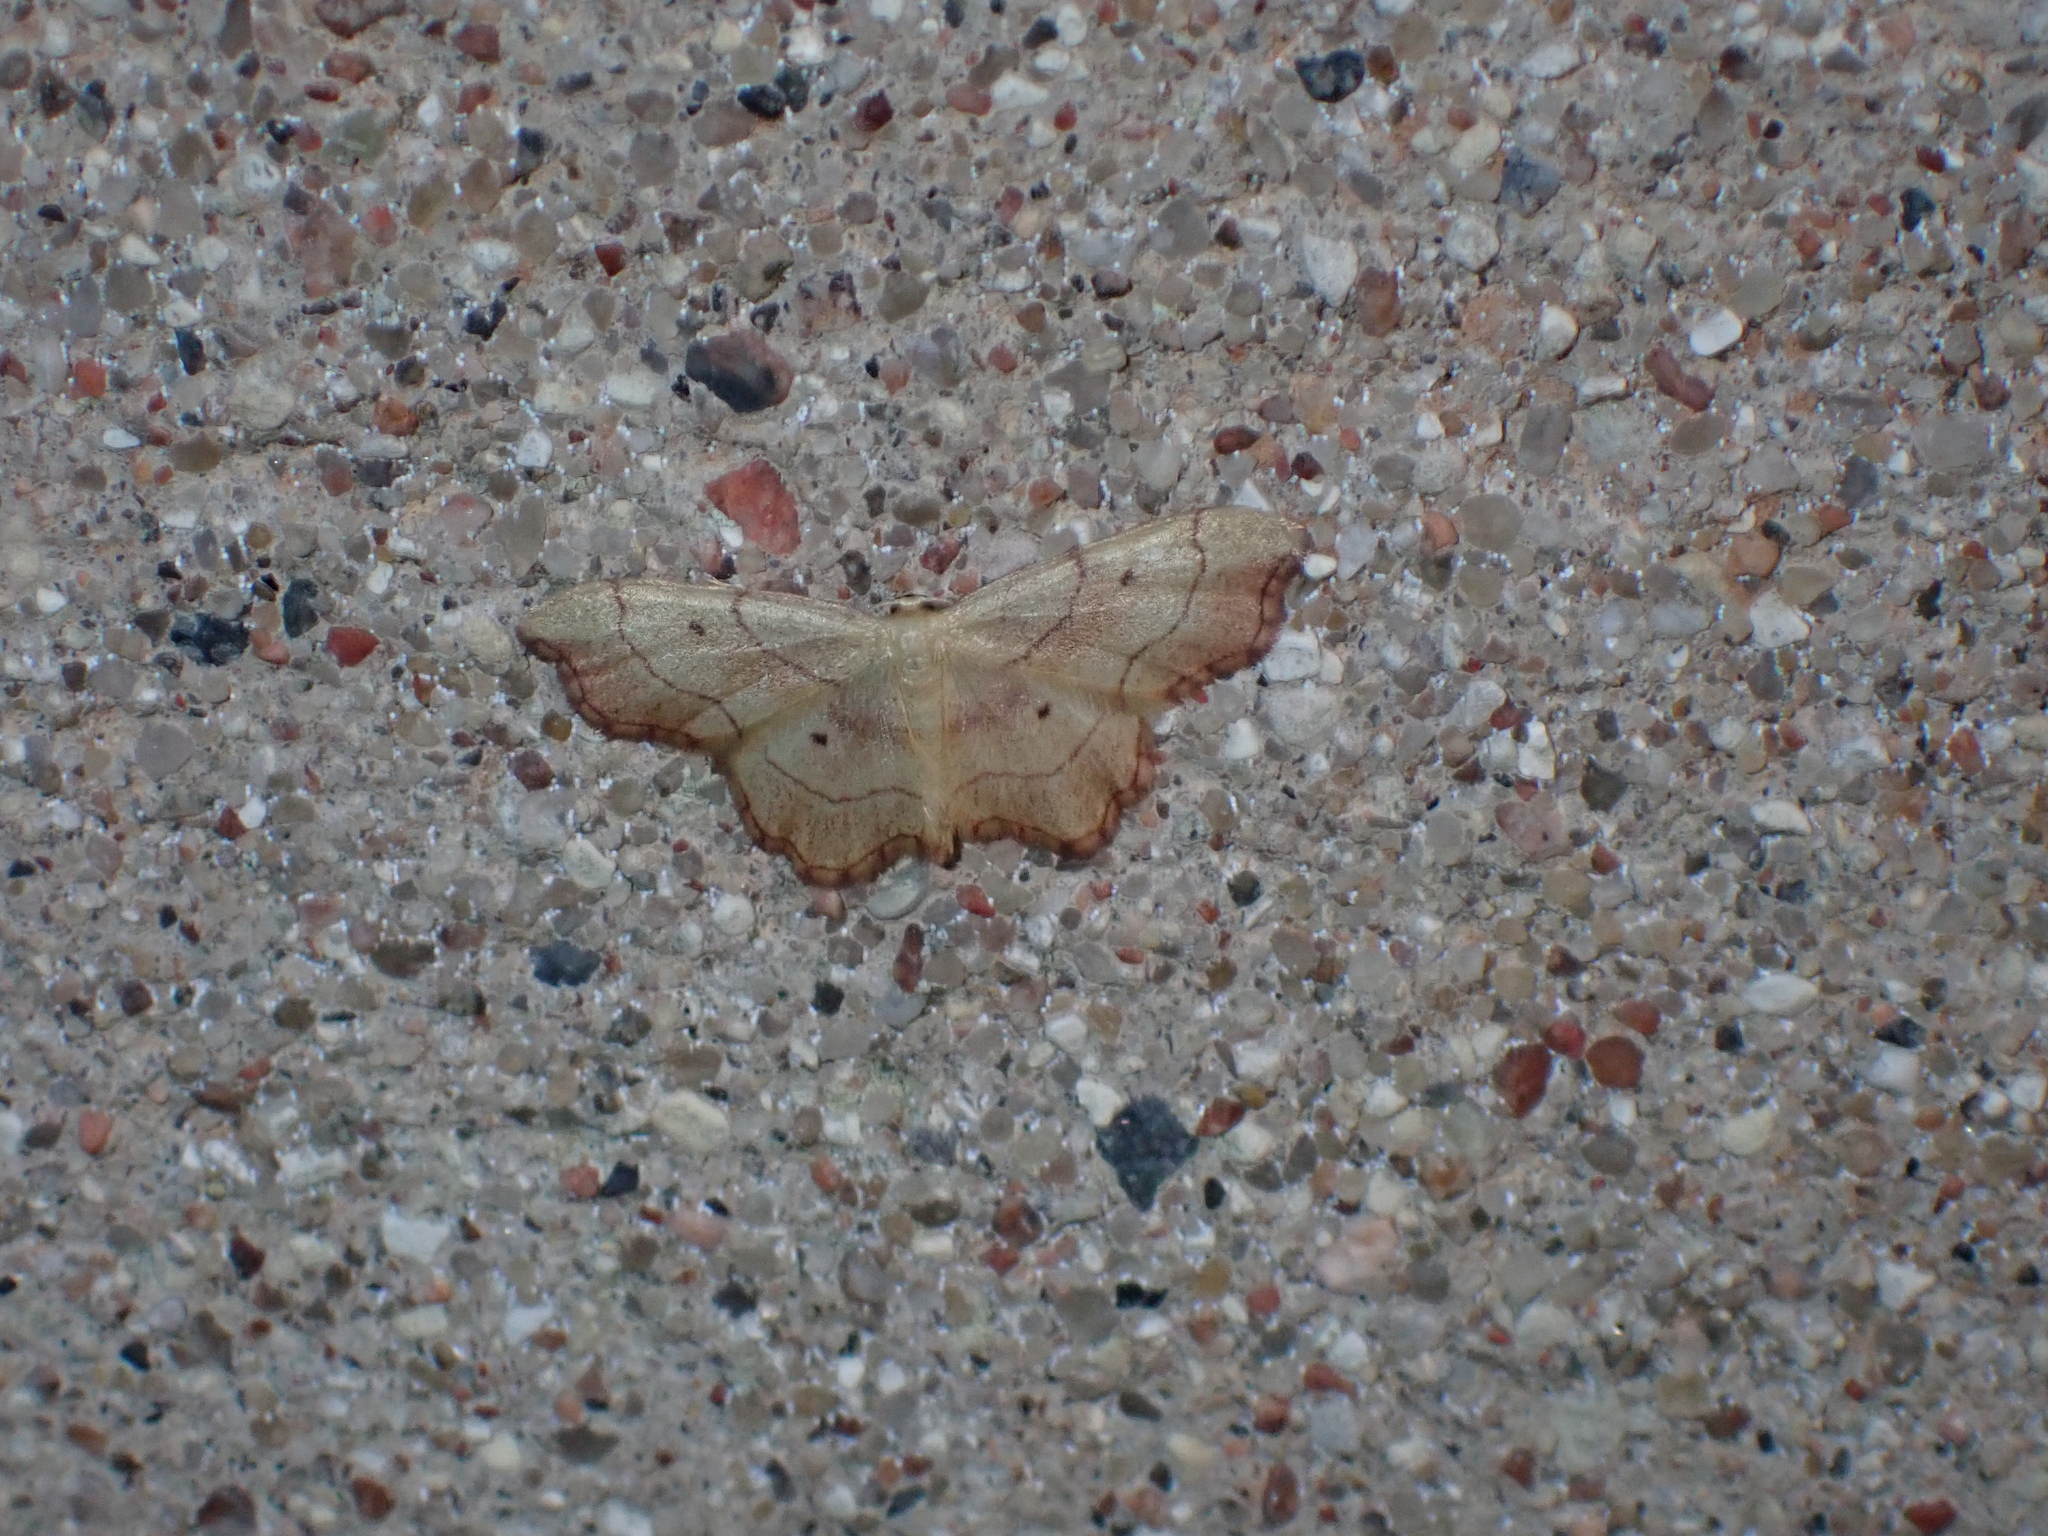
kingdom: Animalia
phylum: Arthropoda
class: Insecta
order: Lepidoptera
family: Geometridae
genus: Idaea
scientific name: Idaea emarginata
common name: Small scallop
